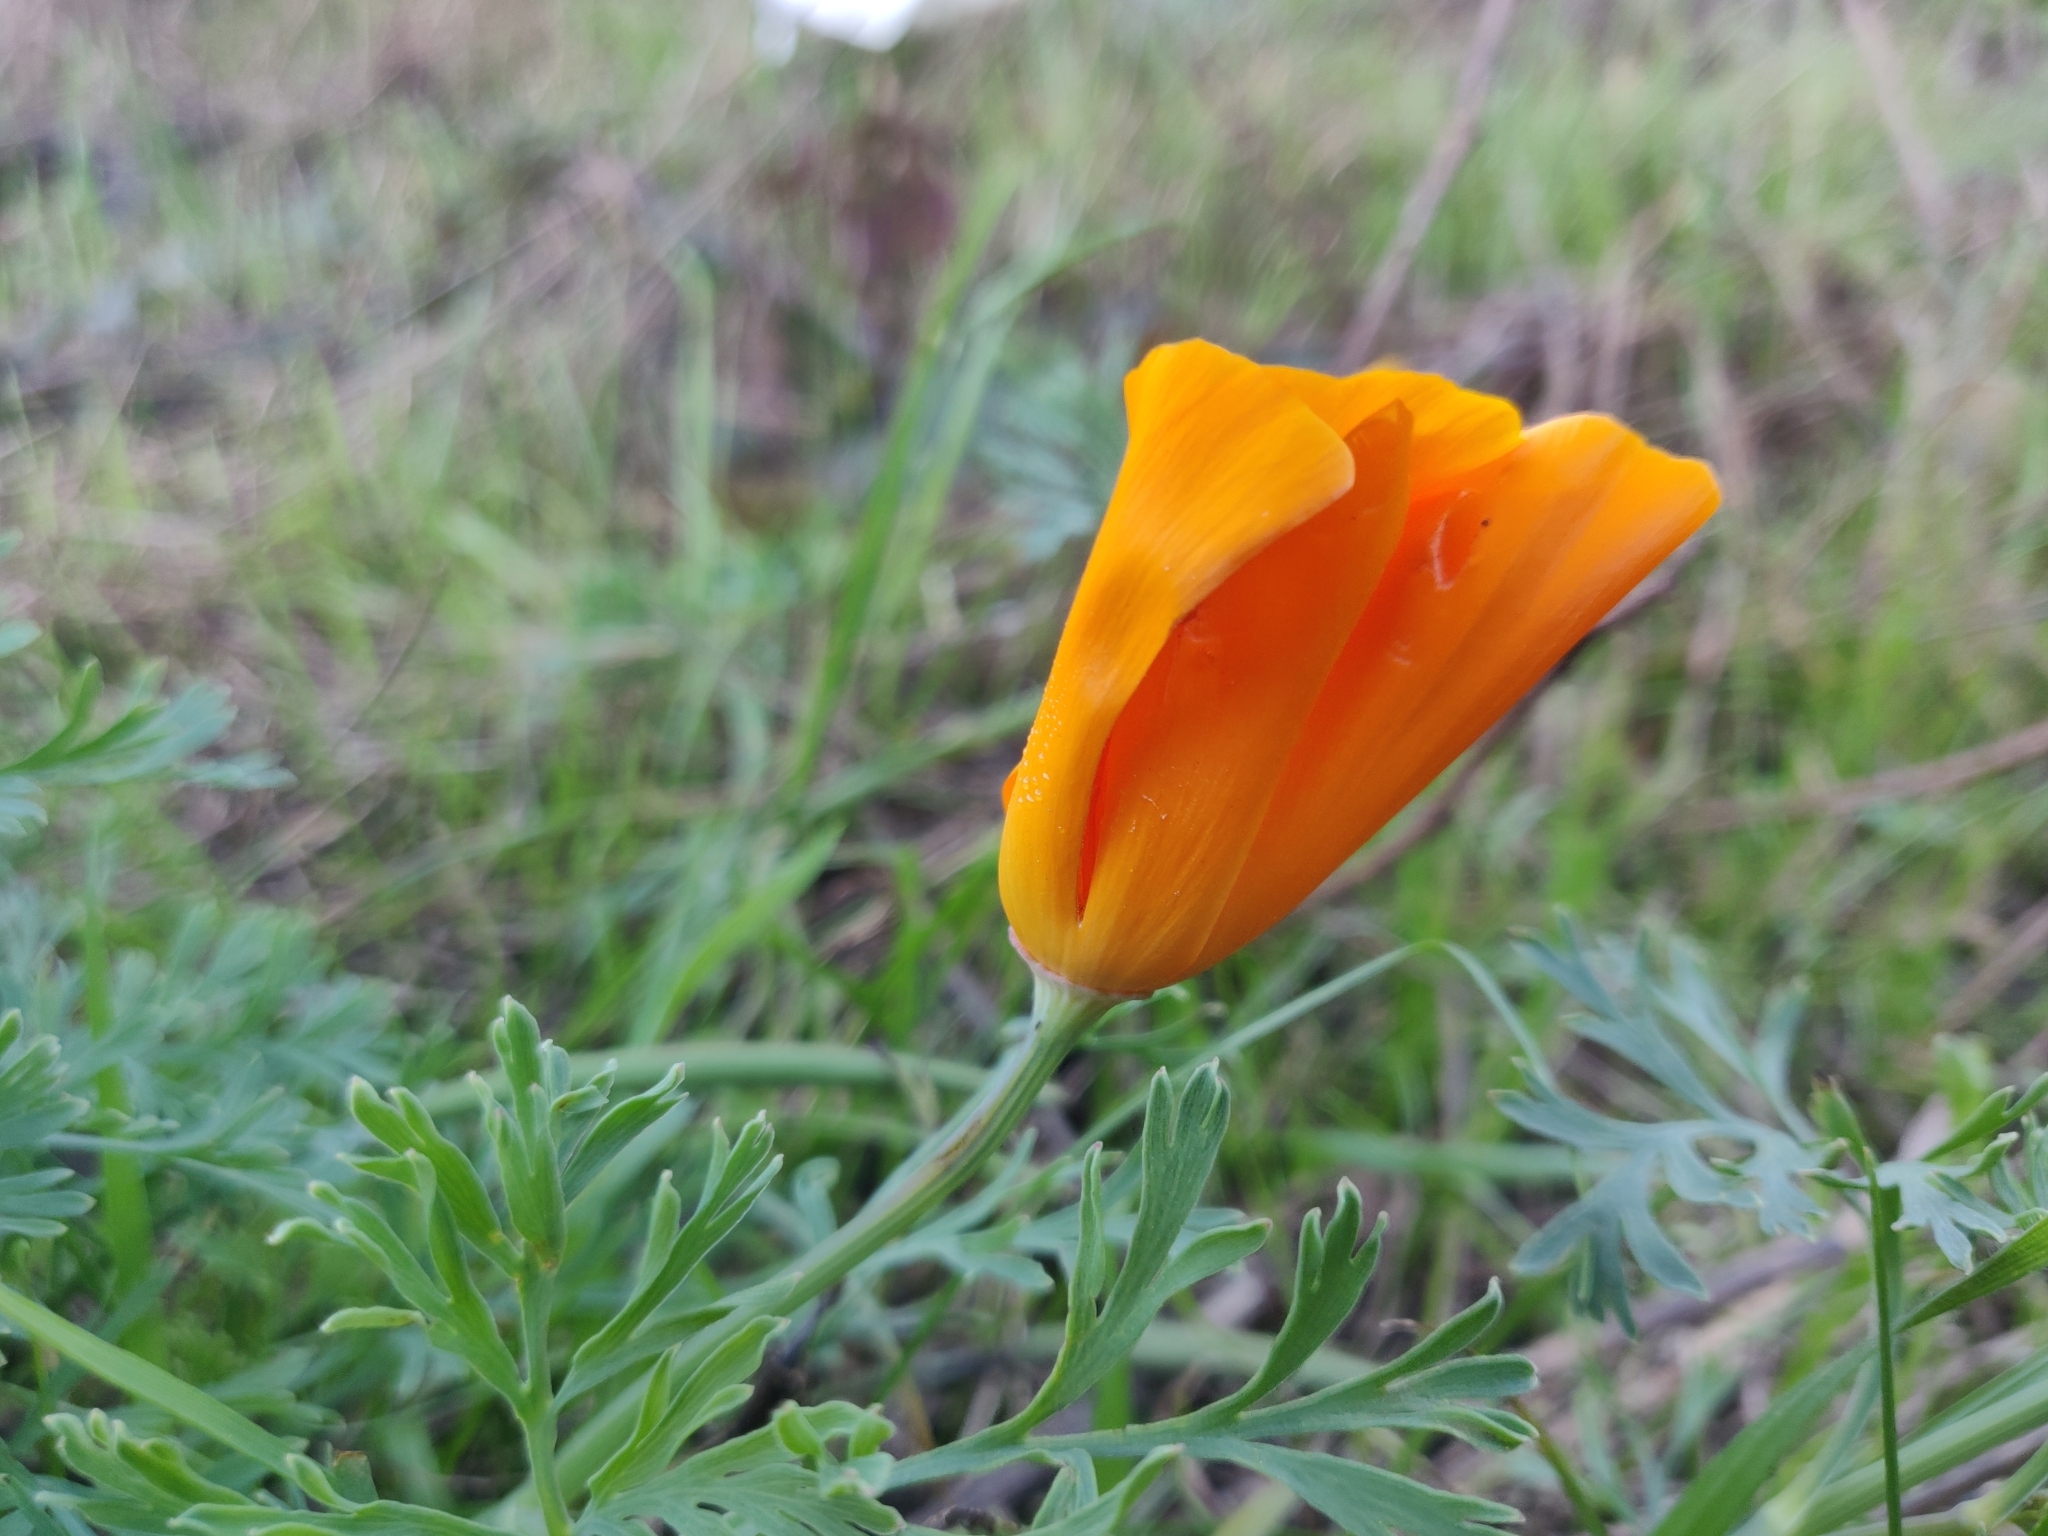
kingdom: Plantae
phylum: Tracheophyta
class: Magnoliopsida
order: Ranunculales
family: Papaveraceae
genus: Eschscholzia
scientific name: Eschscholzia californica
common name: California poppy
